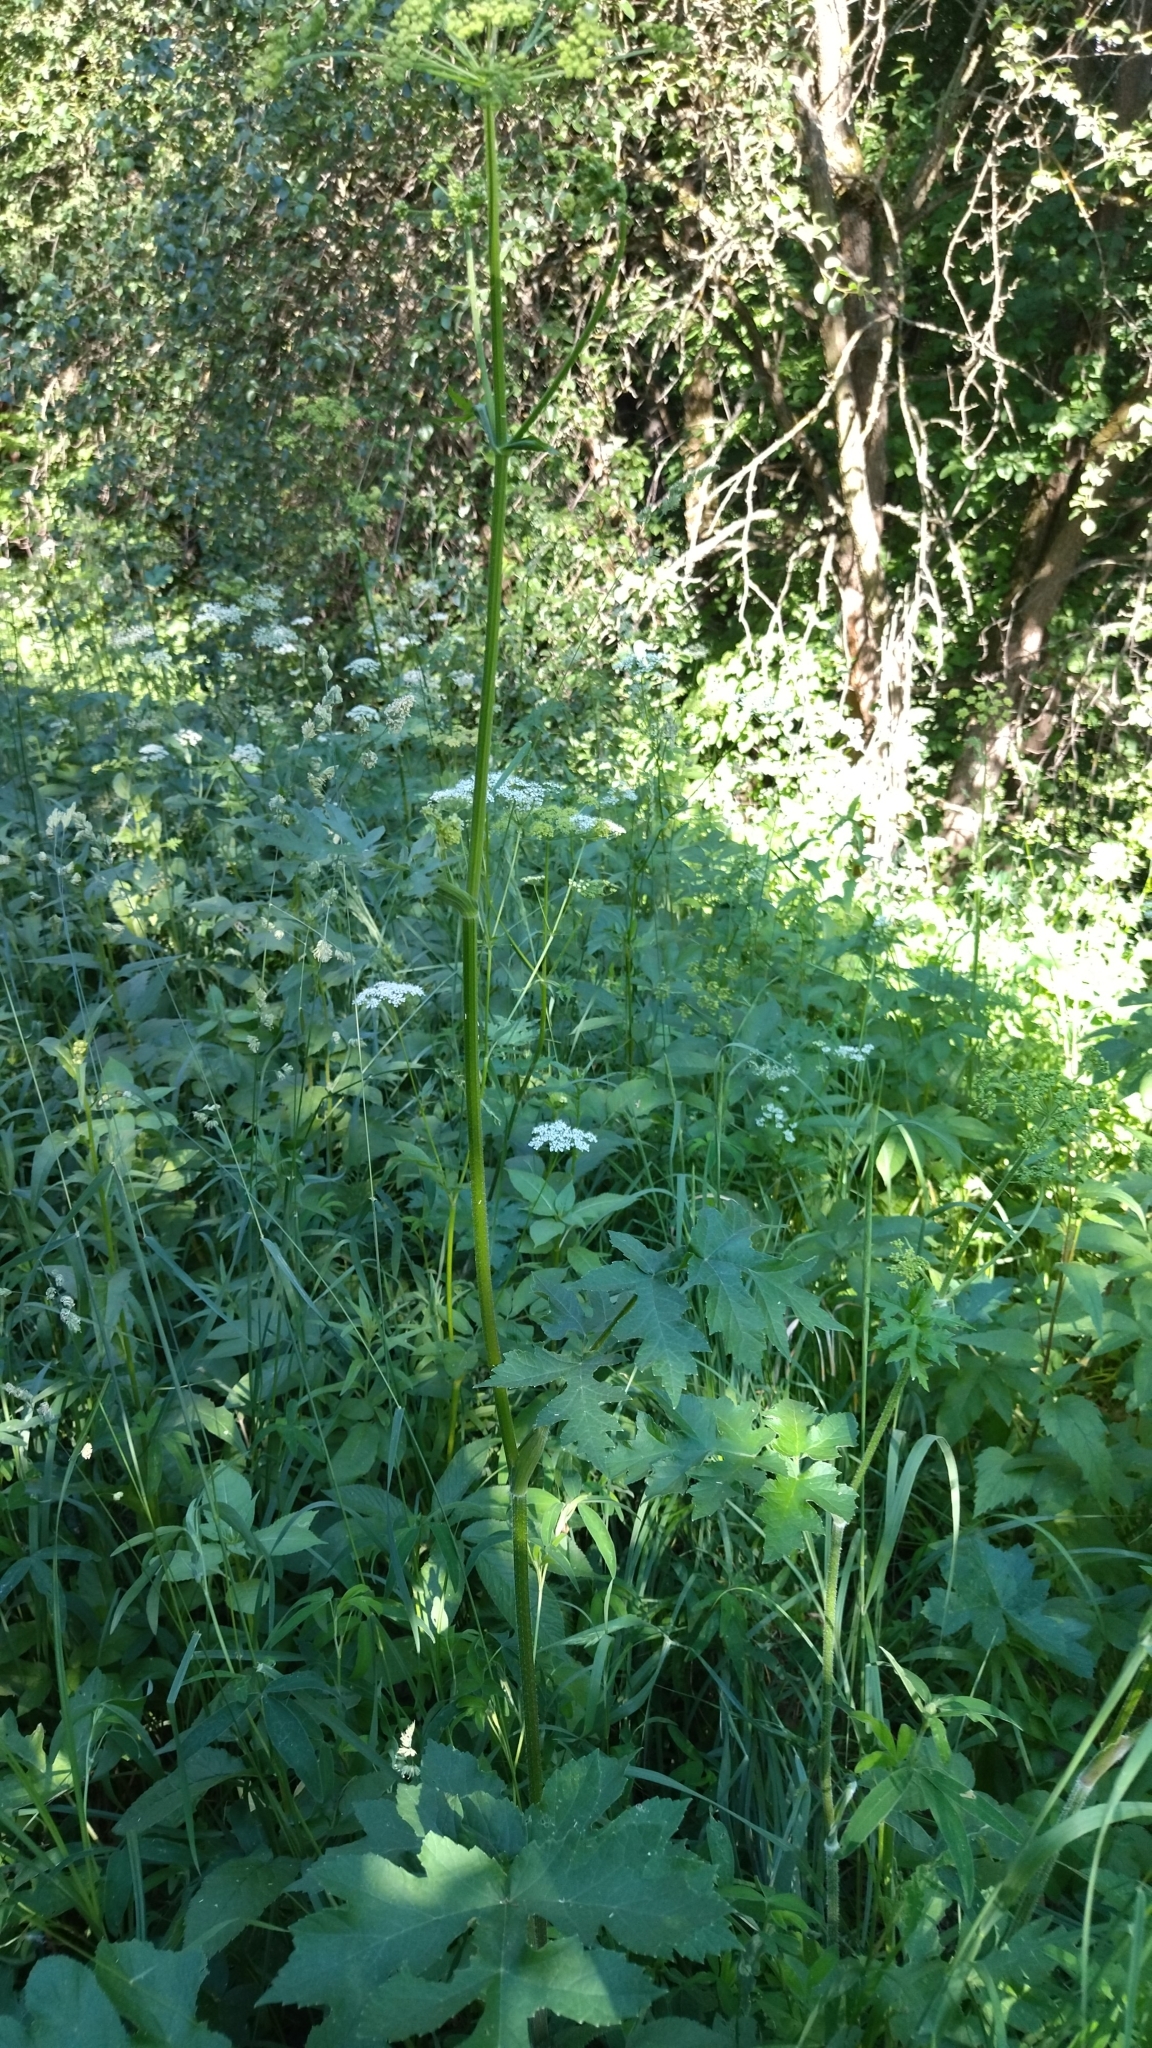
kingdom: Plantae
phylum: Tracheophyta
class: Magnoliopsida
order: Apiales
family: Apiaceae
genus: Heracleum
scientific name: Heracleum sphondylium
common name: Hogweed
